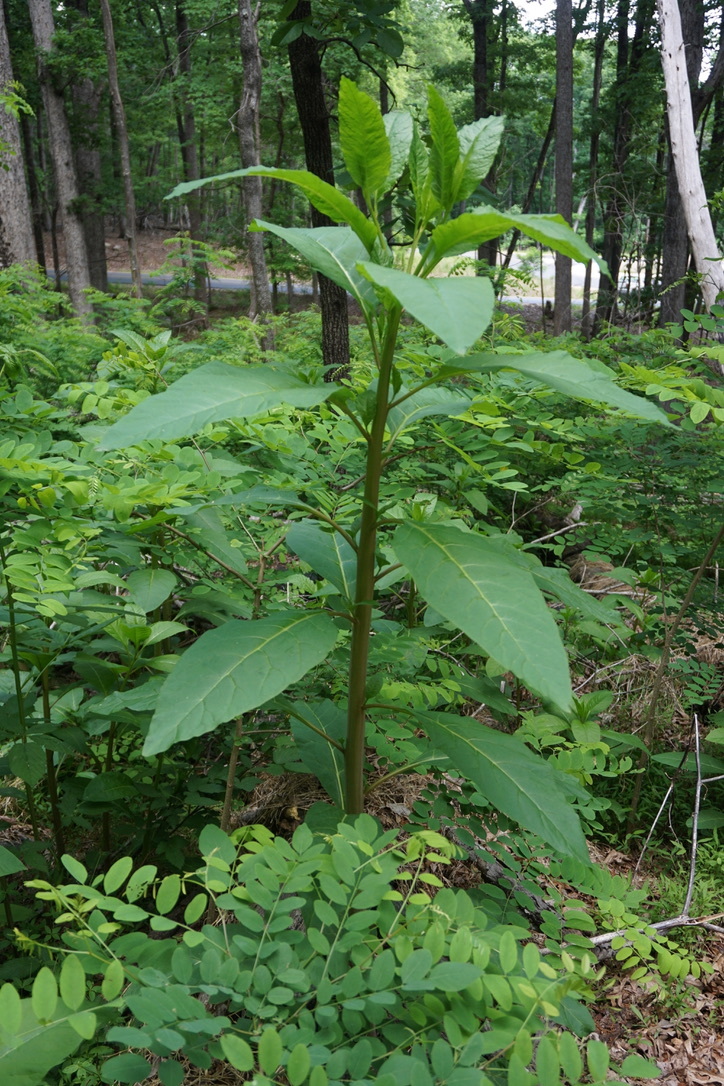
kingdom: Plantae
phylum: Tracheophyta
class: Magnoliopsida
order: Caryophyllales
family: Phytolaccaceae
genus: Phytolacca
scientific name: Phytolacca americana
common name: American pokeweed
